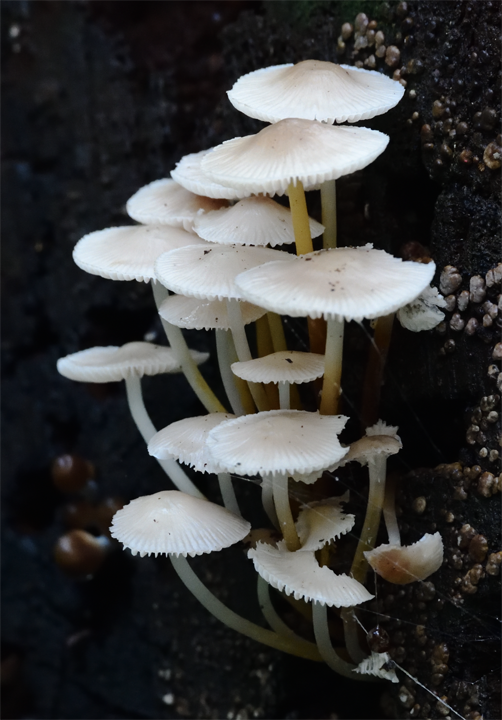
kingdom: Fungi
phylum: Basidiomycota
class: Agaricomycetes
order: Agaricales
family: Mycenaceae
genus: Mycena
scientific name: Mycena inclinata
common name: Clustered bonnet
